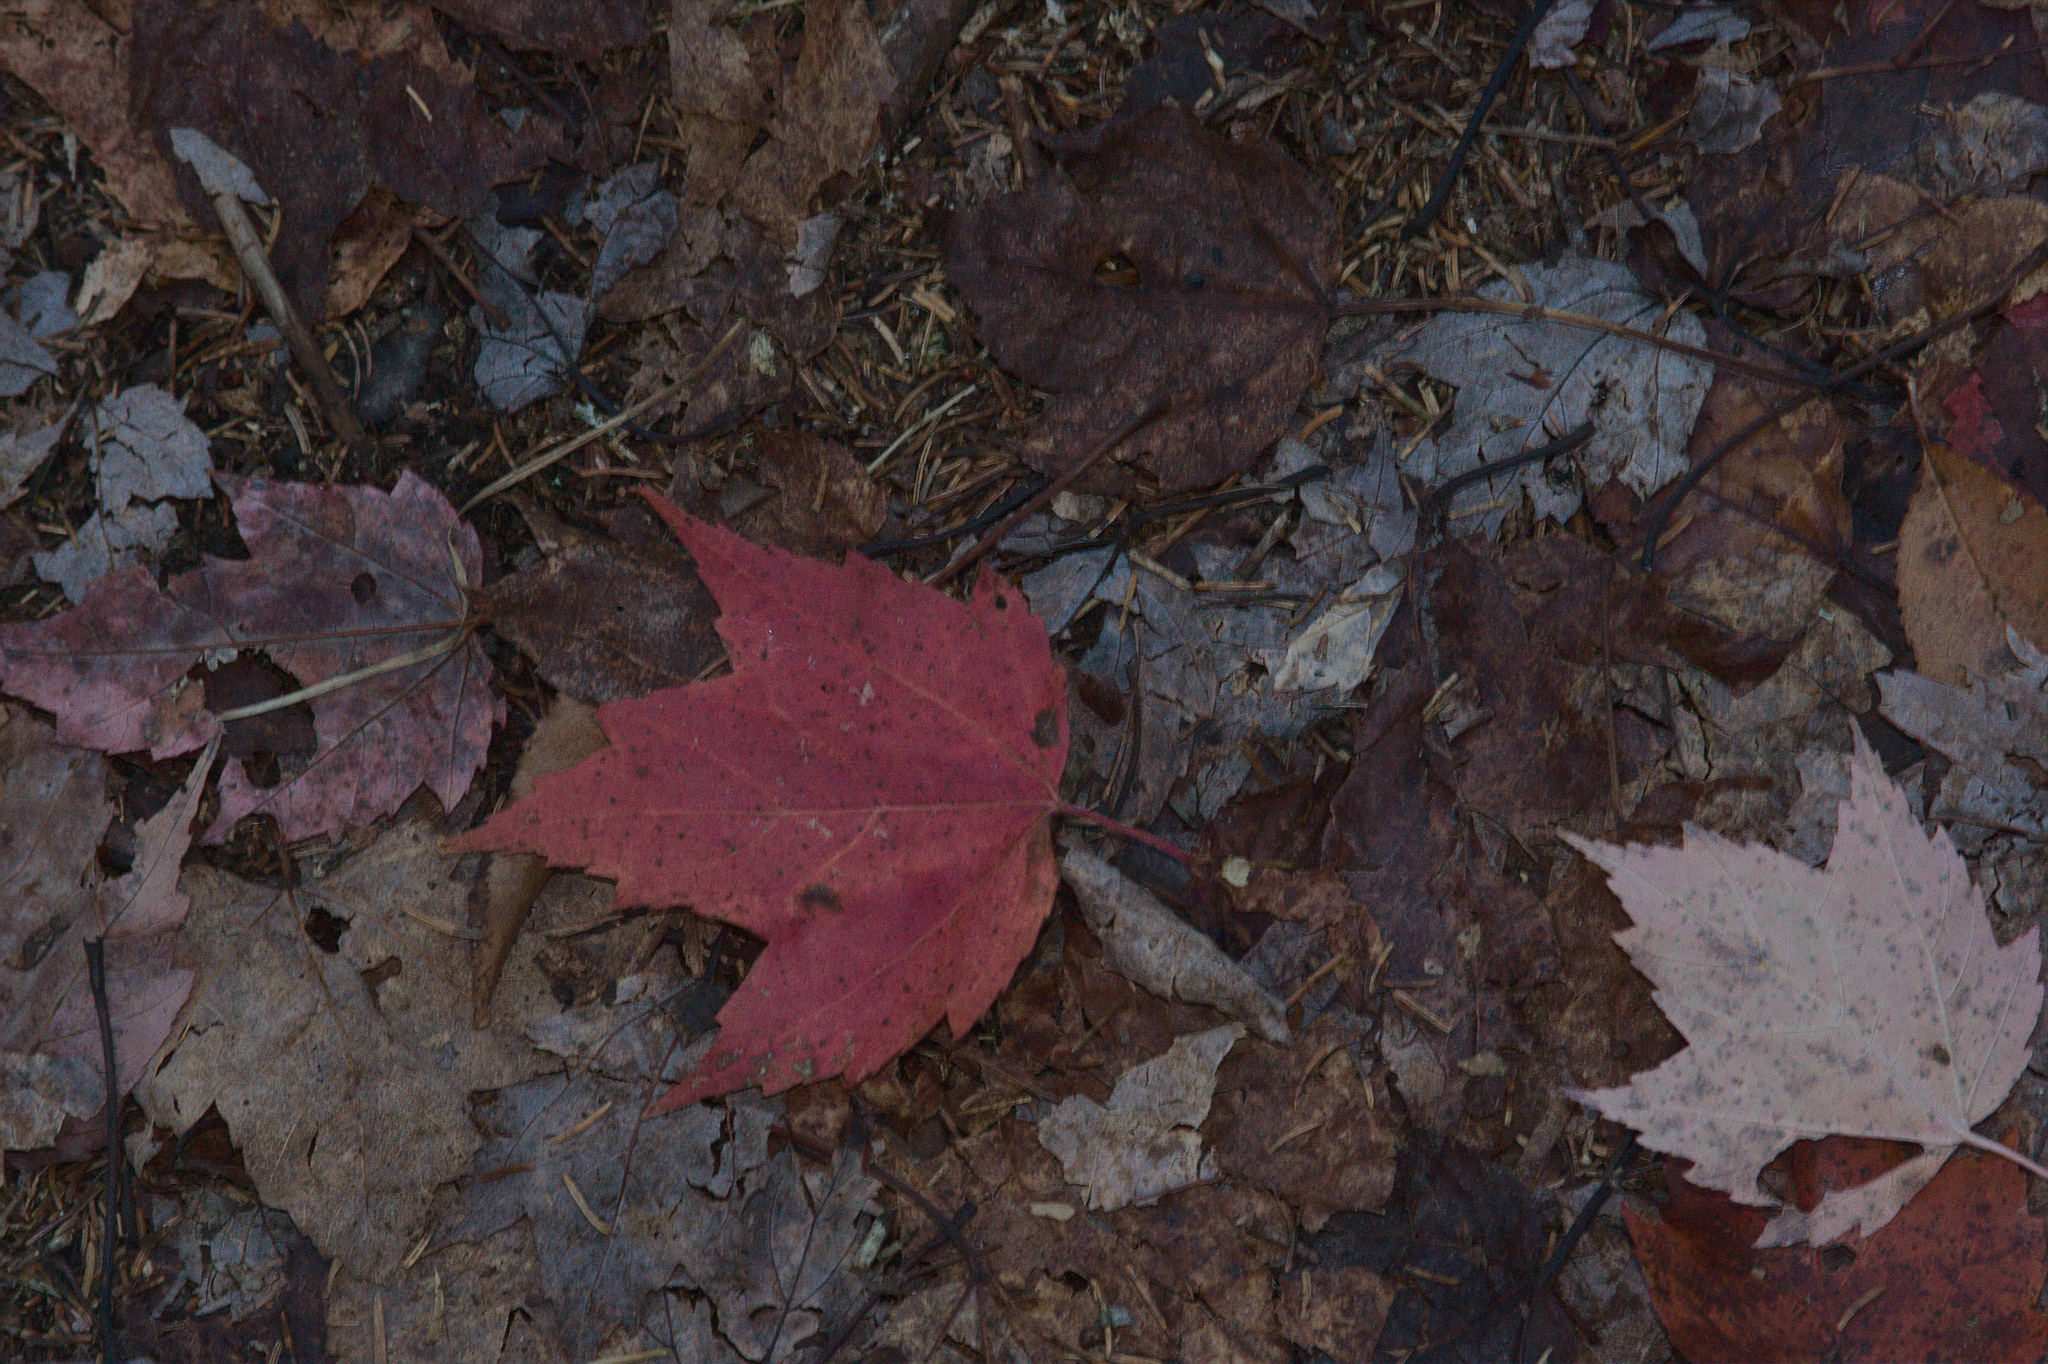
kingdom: Plantae
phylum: Tracheophyta
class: Magnoliopsida
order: Sapindales
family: Sapindaceae
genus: Acer
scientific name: Acer rubrum
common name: Red maple
